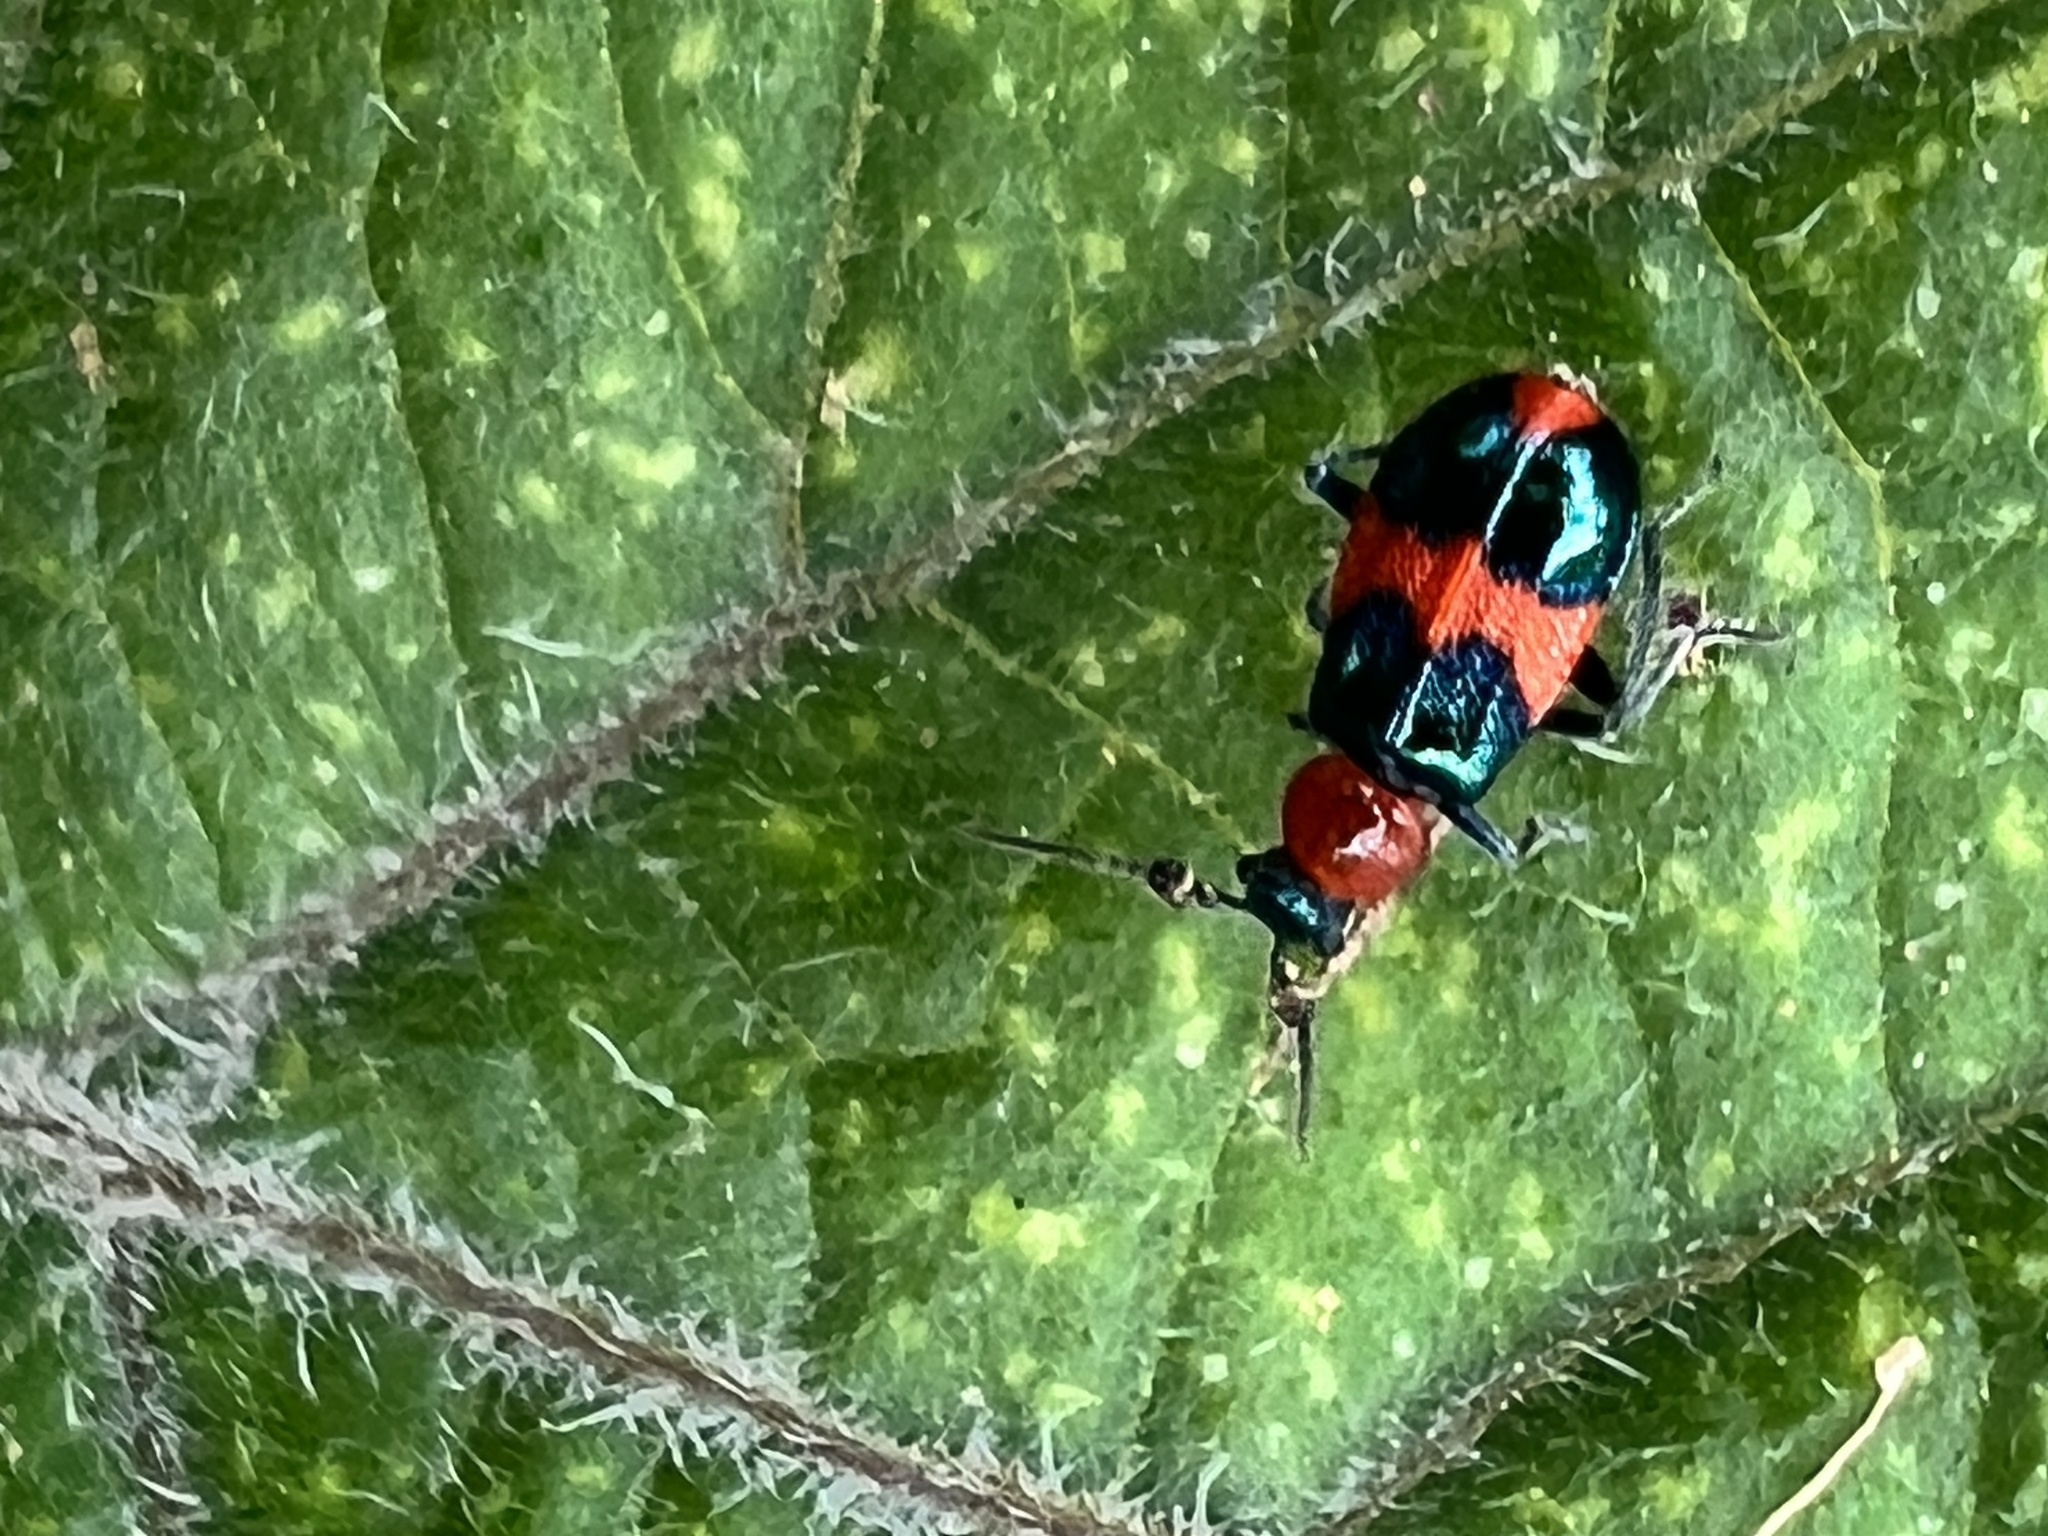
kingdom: Animalia
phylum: Arthropoda
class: Insecta
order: Coleoptera
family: Melyridae
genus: Dicranolaius
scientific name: Dicranolaius bellulus
